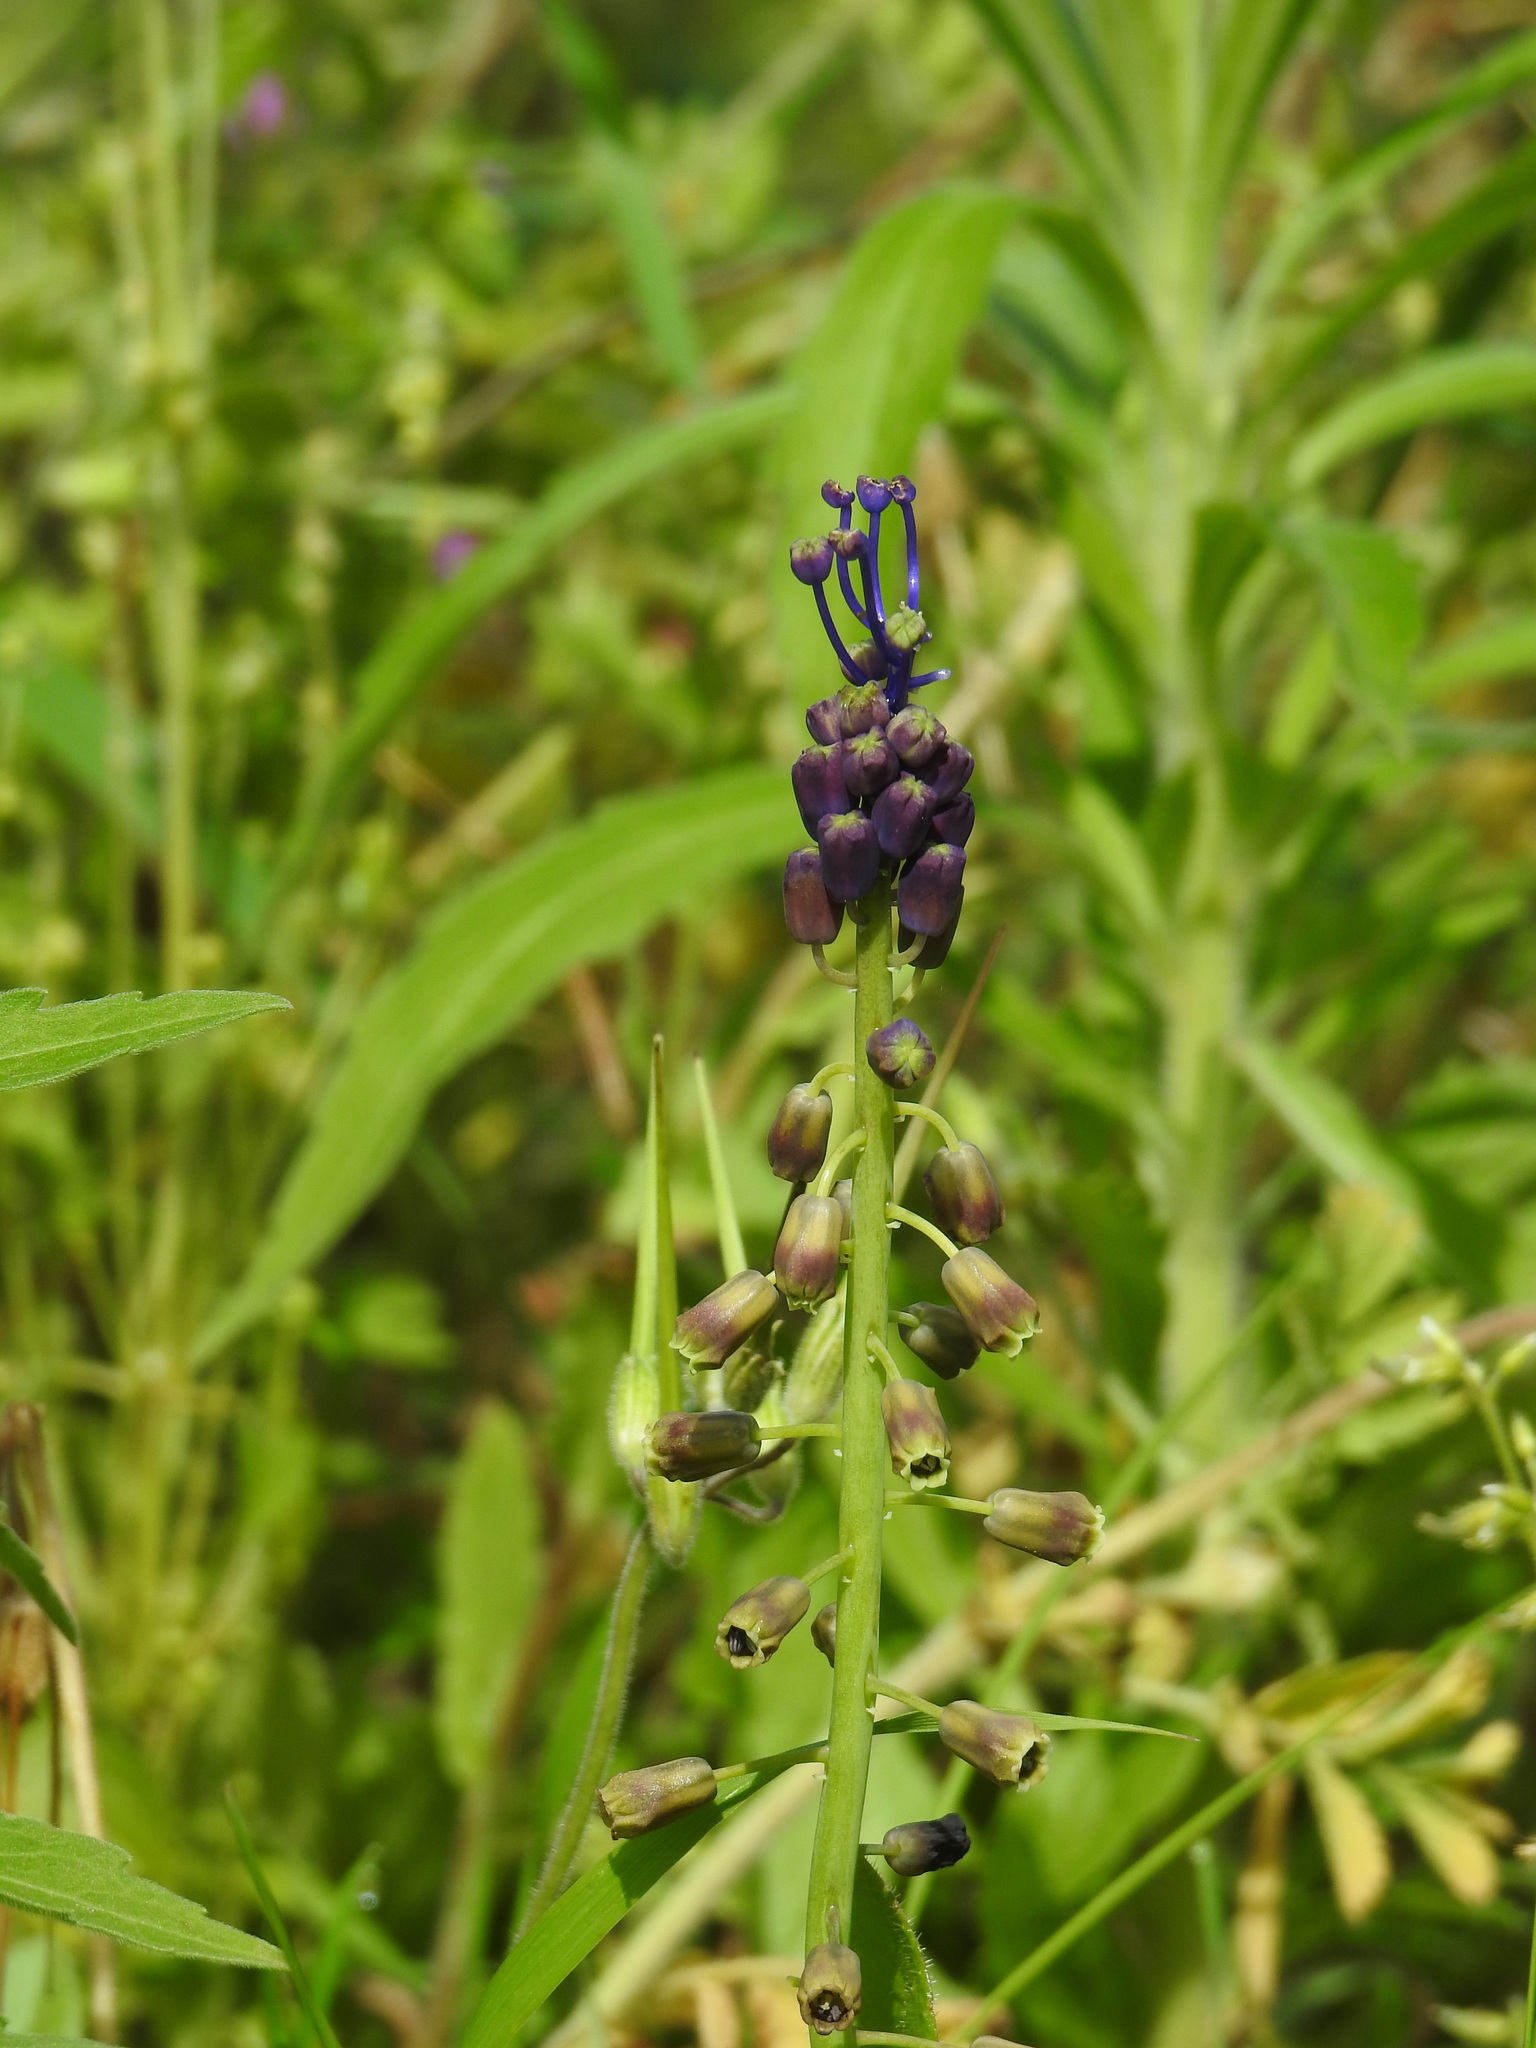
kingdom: Plantae
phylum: Tracheophyta
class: Liliopsida
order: Asparagales
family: Asparagaceae
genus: Muscari
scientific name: Muscari comosum
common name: Tassel hyacinth
